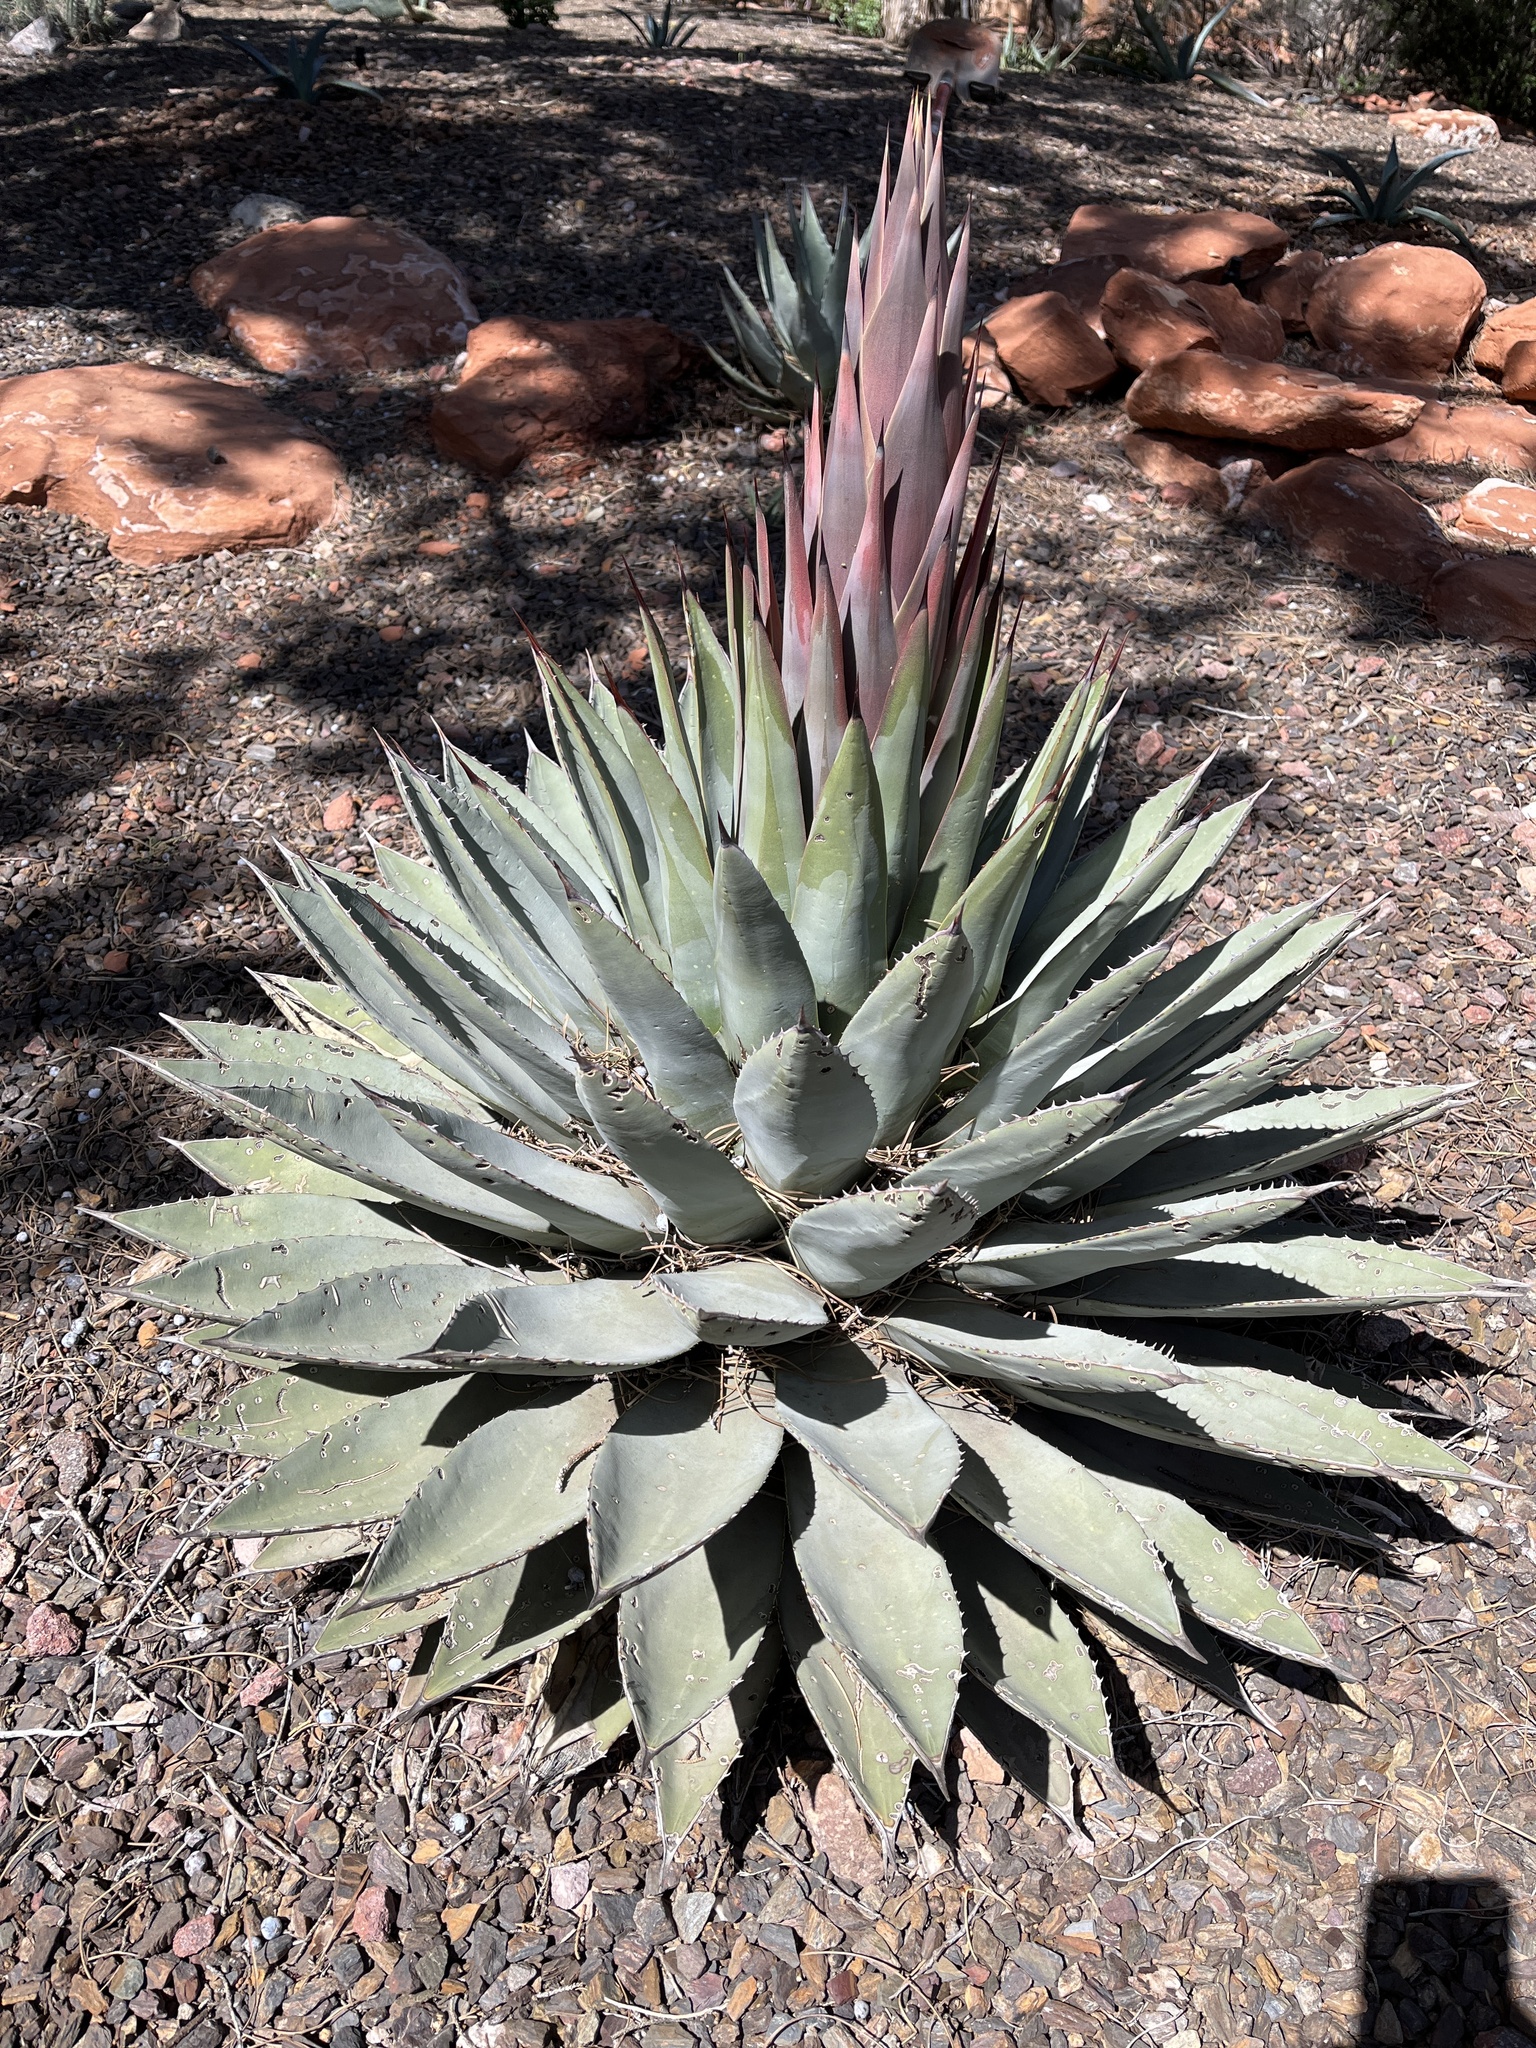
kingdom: Plantae
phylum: Tracheophyta
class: Liliopsida
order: Asparagales
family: Asparagaceae
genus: Agave
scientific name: Agave parryi
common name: Parry's agave
